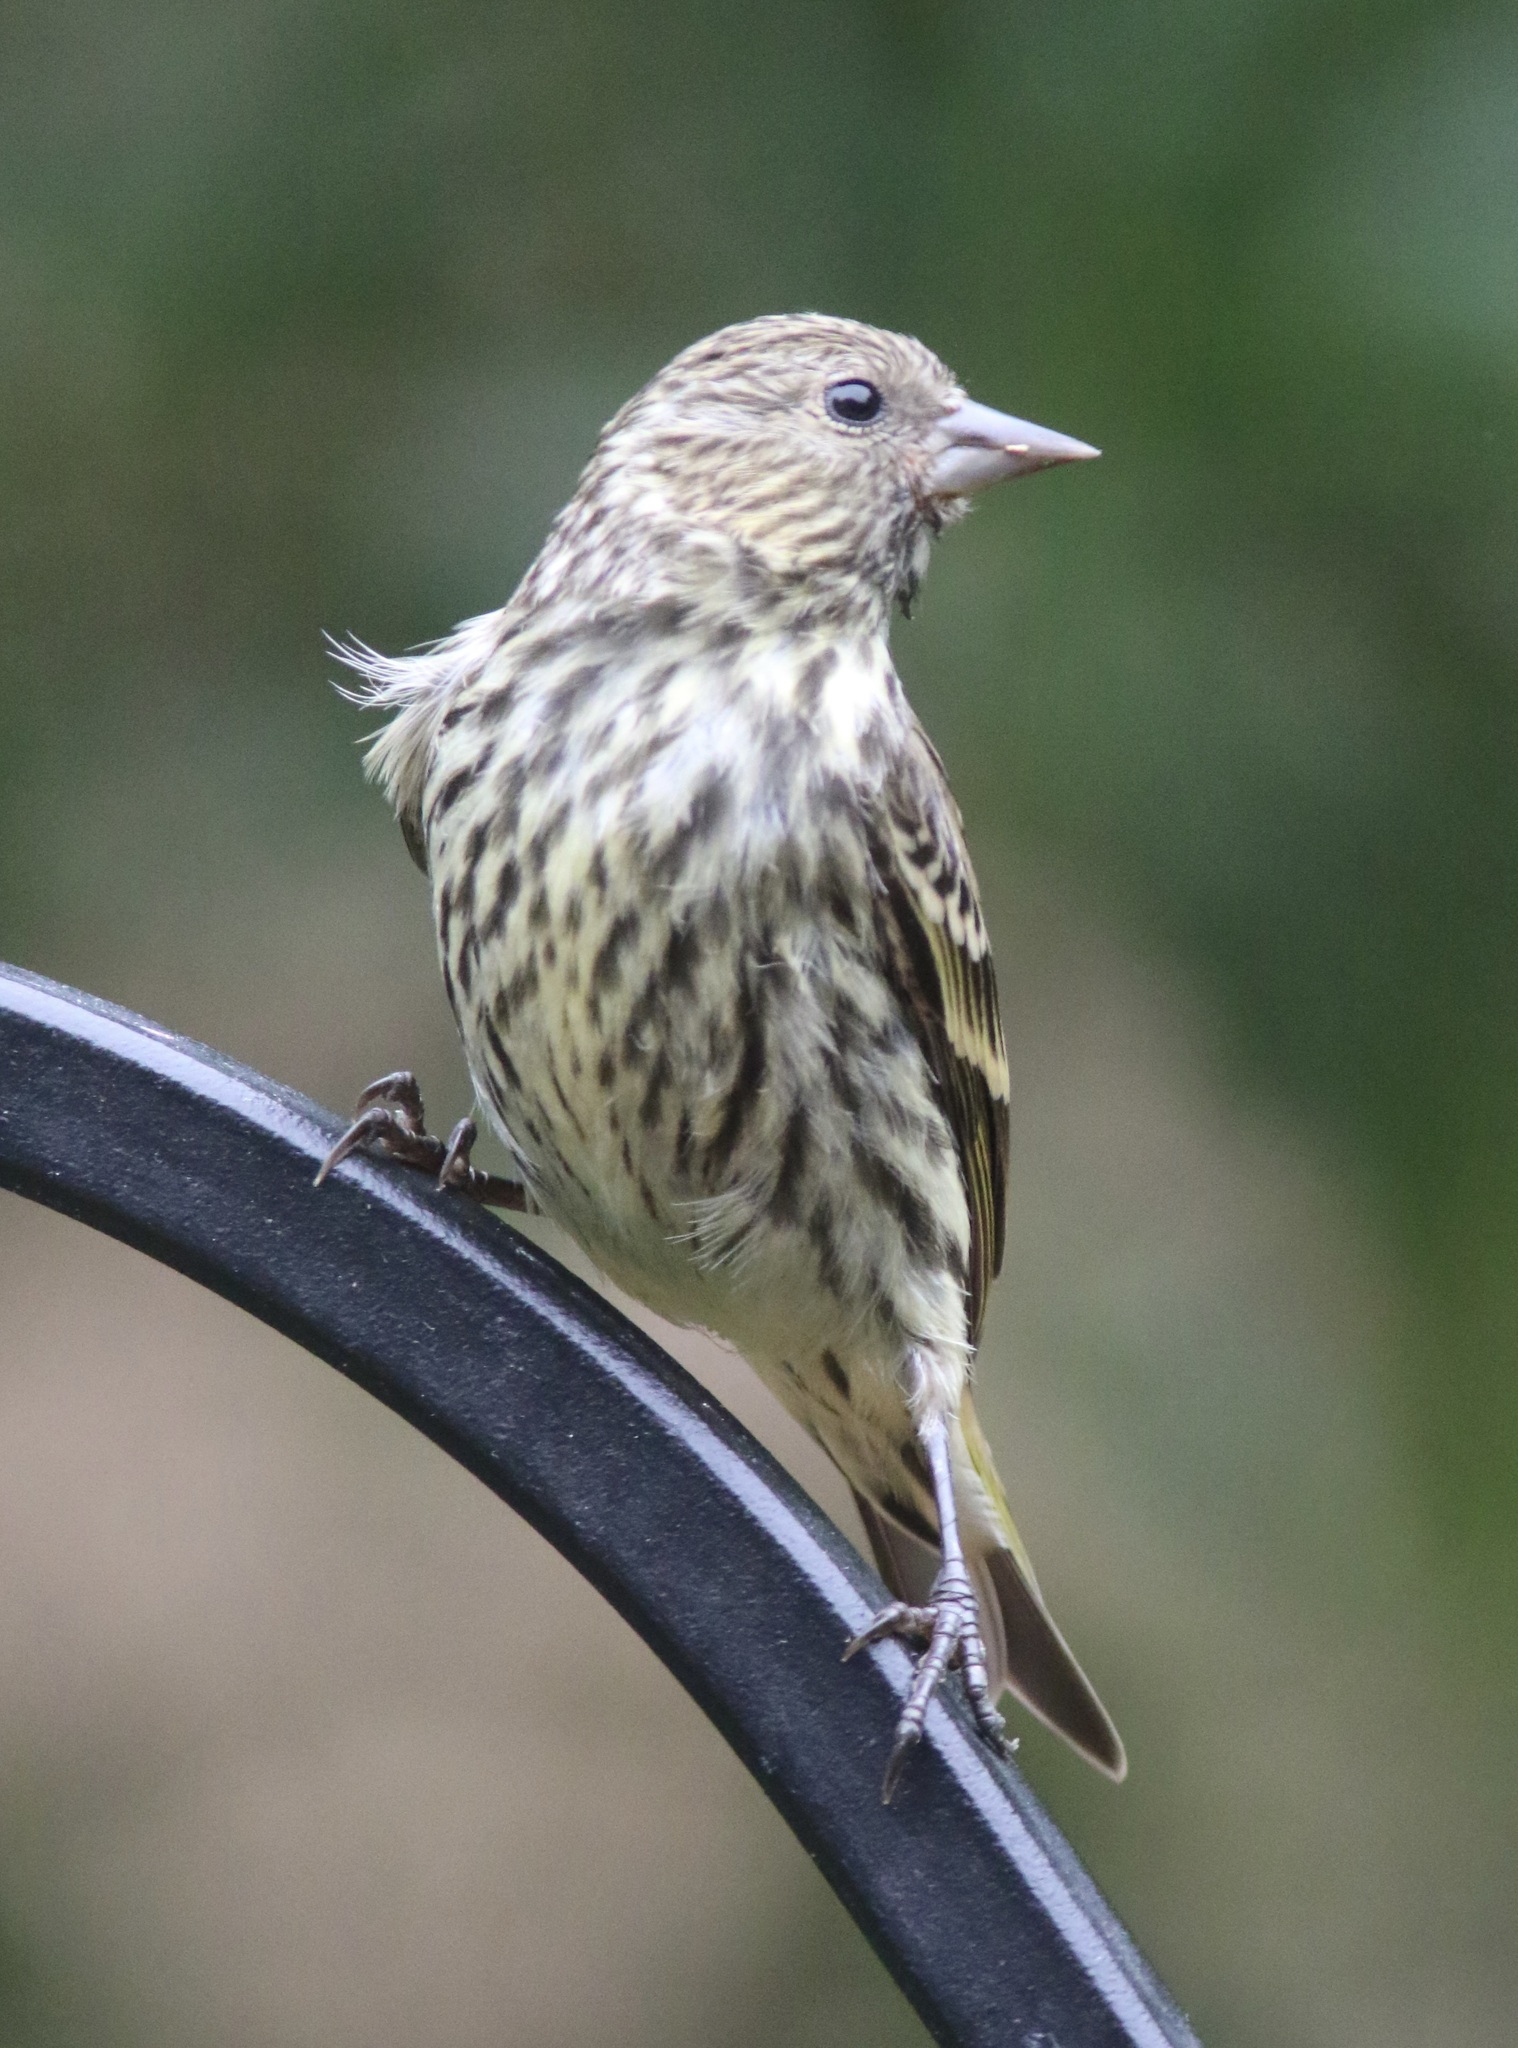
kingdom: Animalia
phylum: Chordata
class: Aves
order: Passeriformes
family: Fringillidae
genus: Spinus
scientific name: Spinus pinus
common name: Pine siskin
